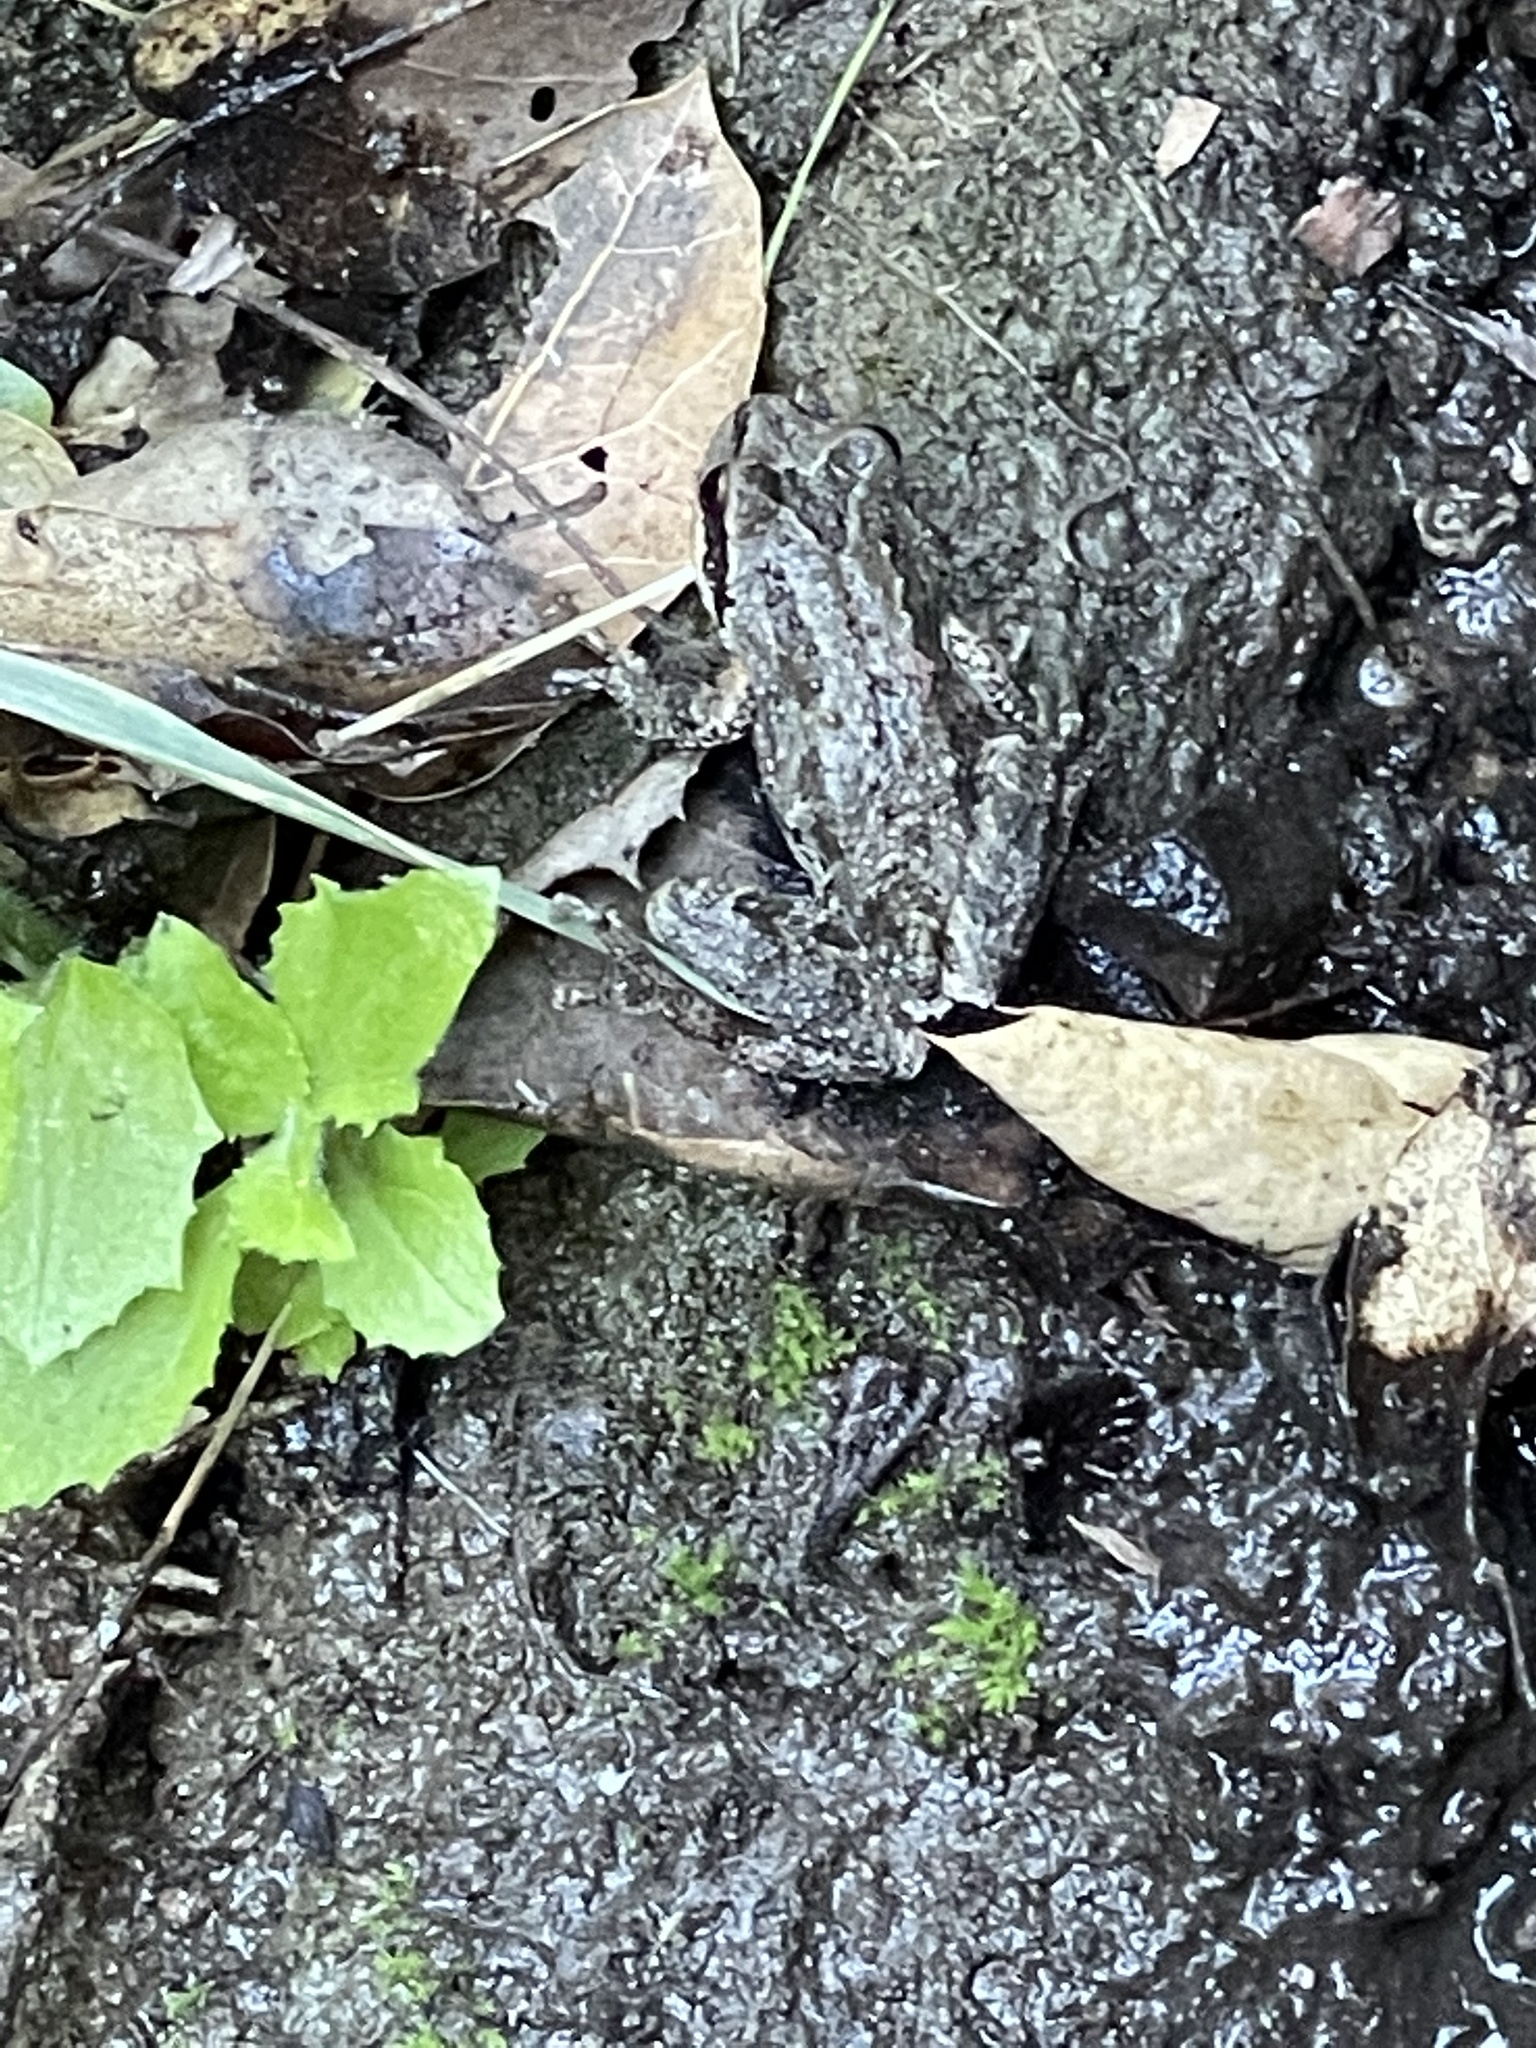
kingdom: Animalia
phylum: Chordata
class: Amphibia
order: Anura
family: Hylidae
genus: Pseudacris
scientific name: Pseudacris regilla
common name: Pacific chorus frog
